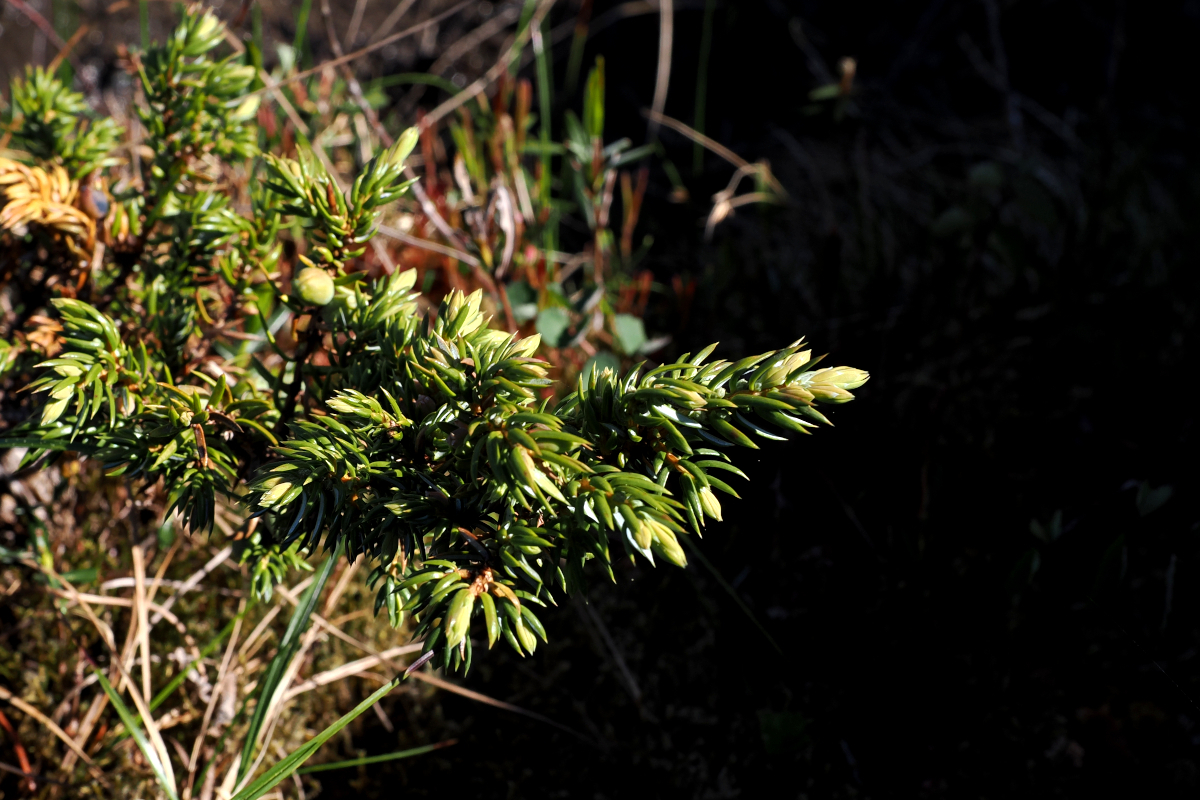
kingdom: Plantae
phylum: Tracheophyta
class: Pinopsida
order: Pinales
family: Cupressaceae
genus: Juniperus
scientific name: Juniperus communis
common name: Common juniper
